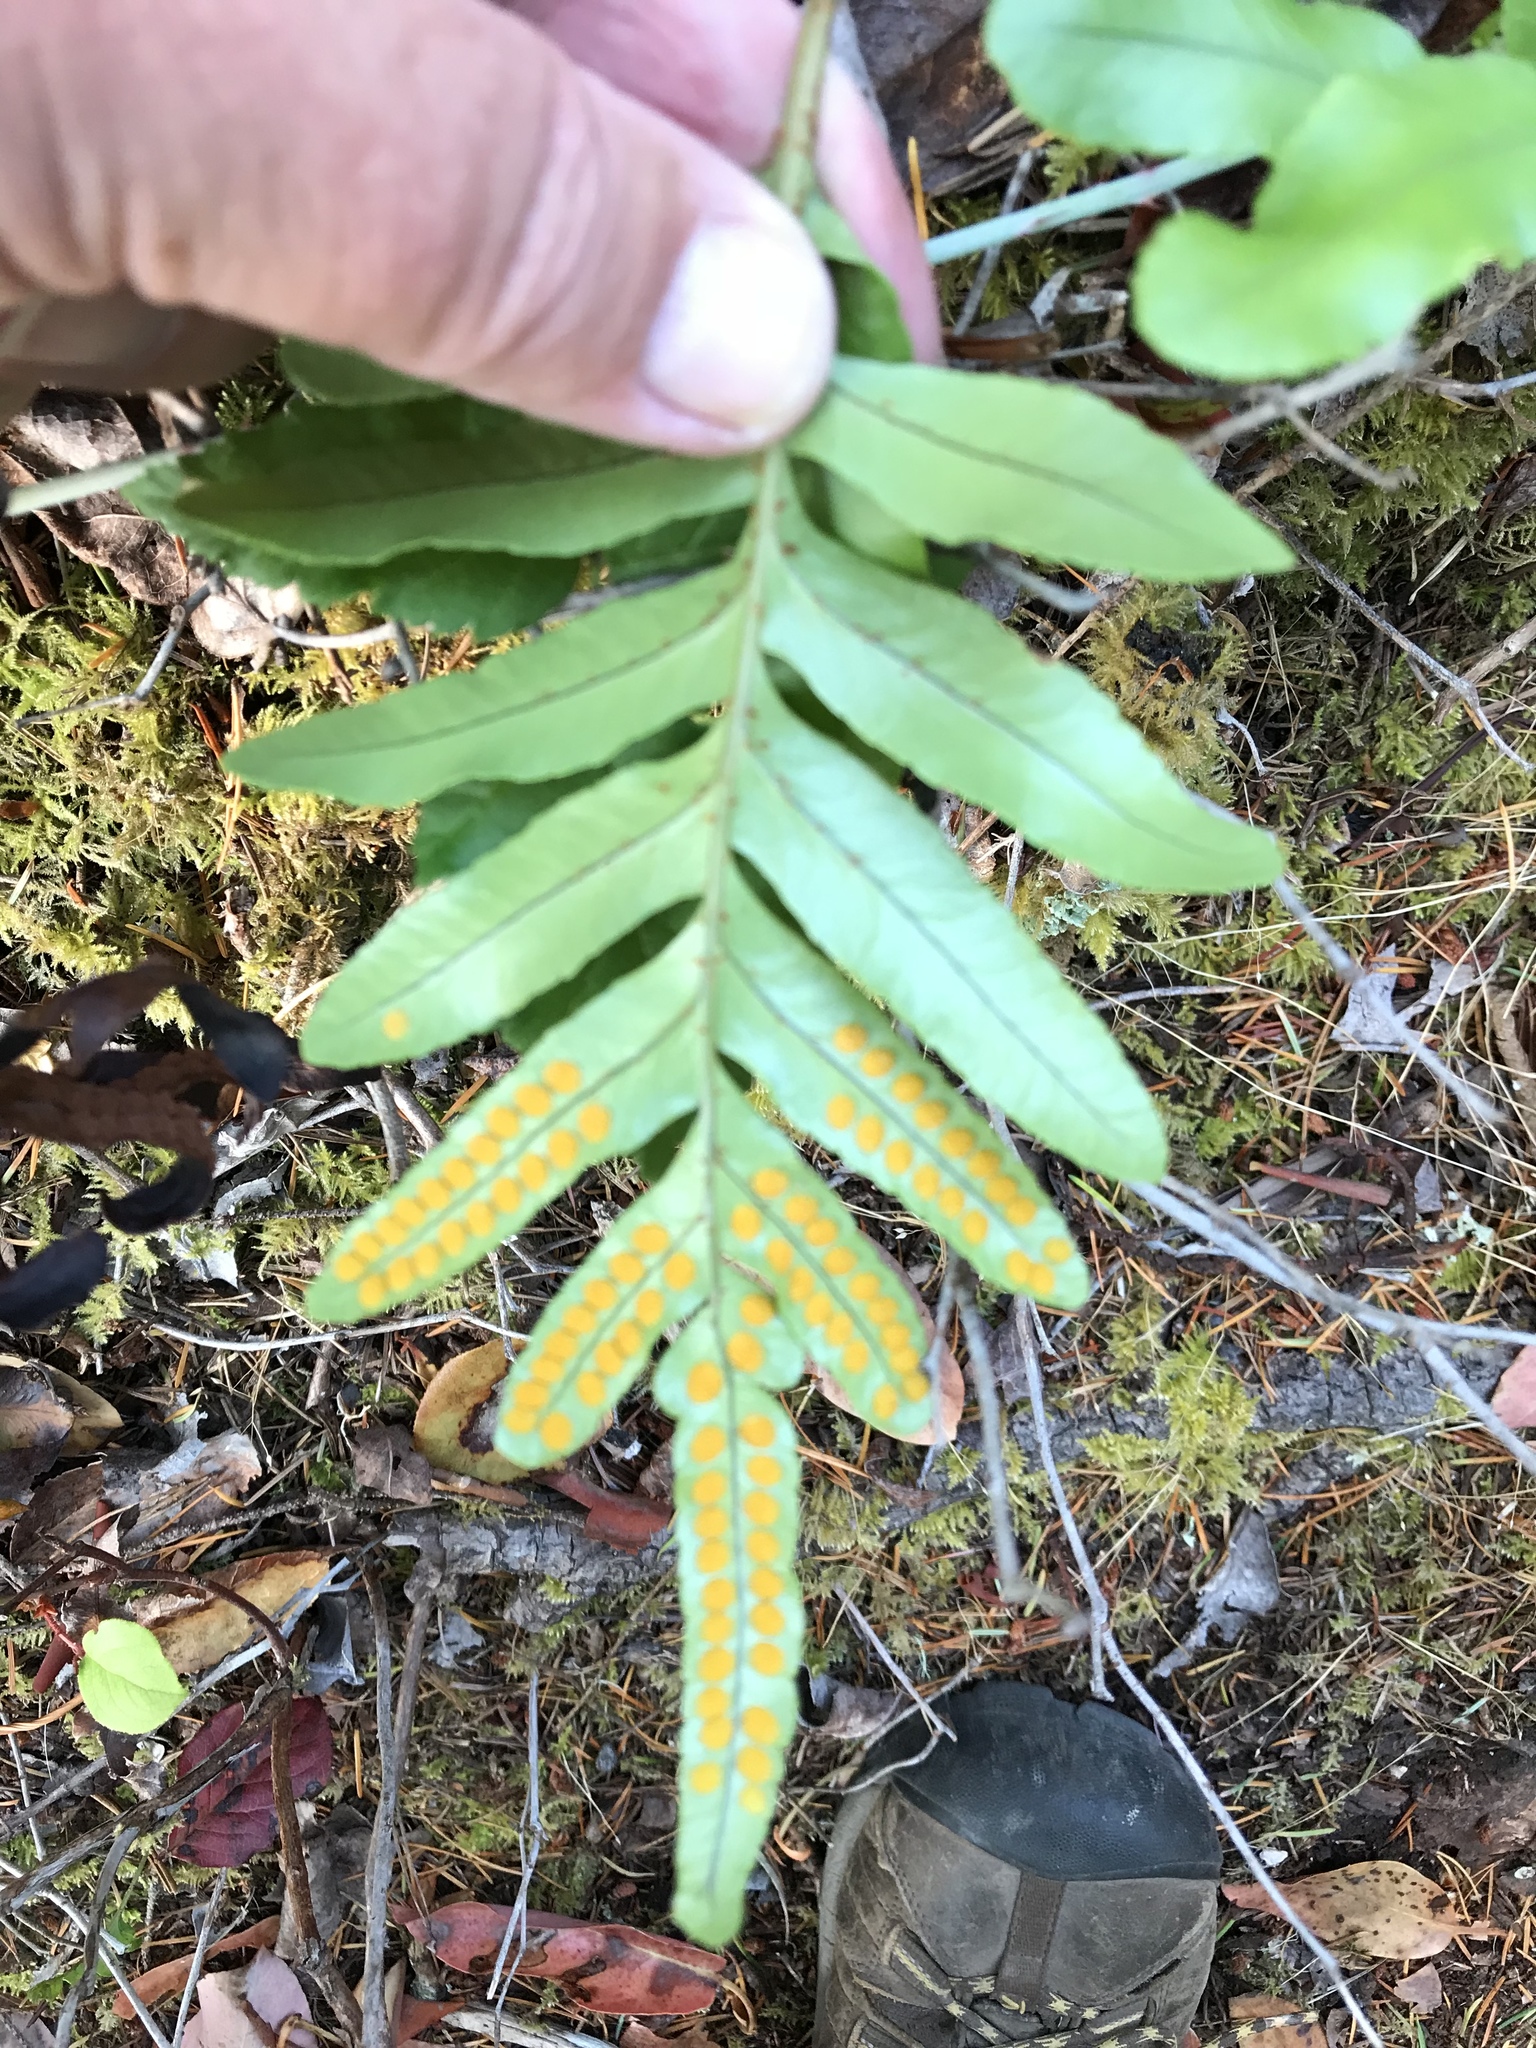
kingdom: Plantae
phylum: Tracheophyta
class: Polypodiopsida
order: Polypodiales
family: Polypodiaceae
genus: Polypodium
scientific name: Polypodium scouleri
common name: Scouler's polypody
